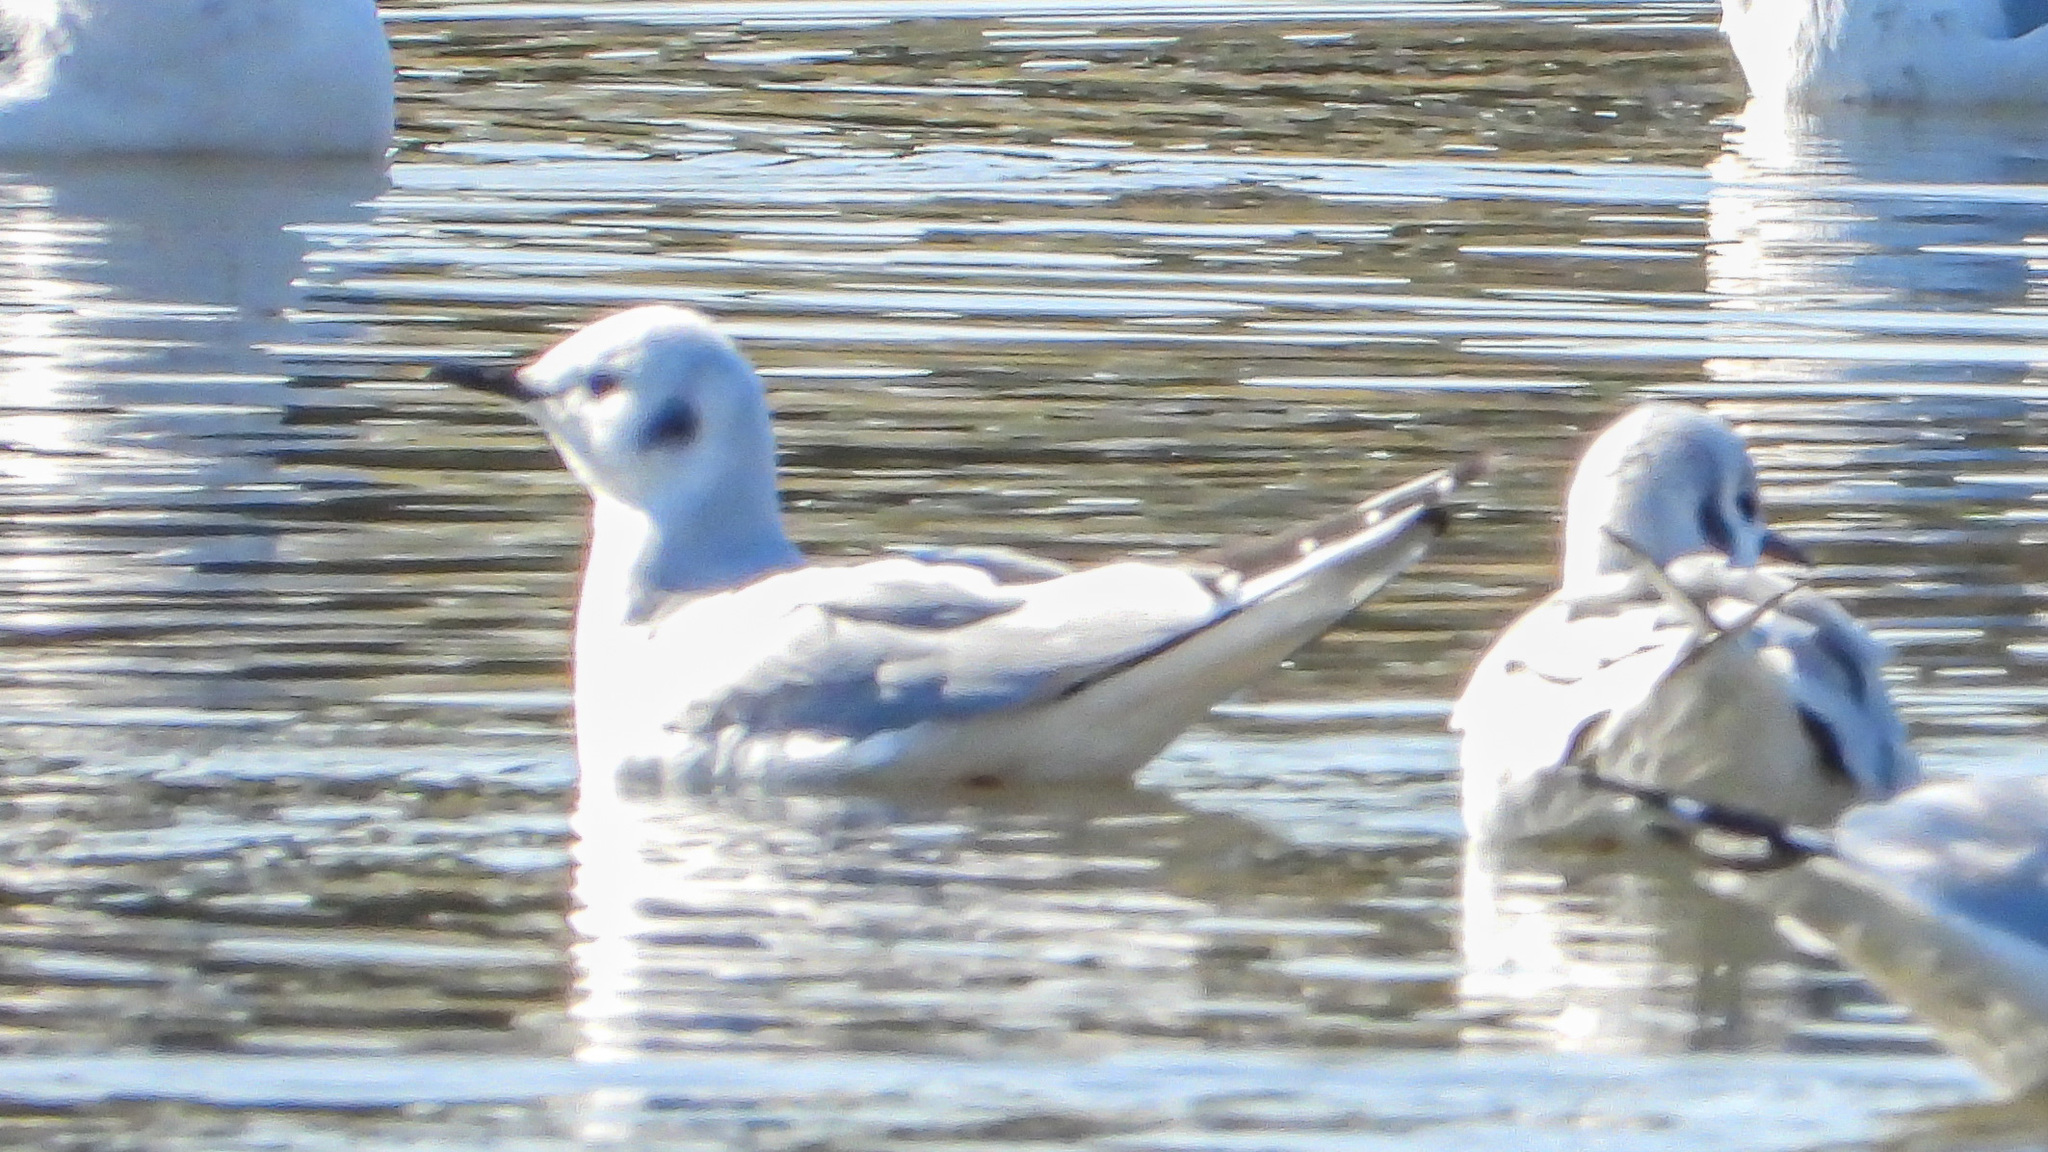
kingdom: Animalia
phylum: Chordata
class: Aves
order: Charadriiformes
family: Laridae
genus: Chroicocephalus
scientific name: Chroicocephalus philadelphia
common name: Bonaparte's gull
